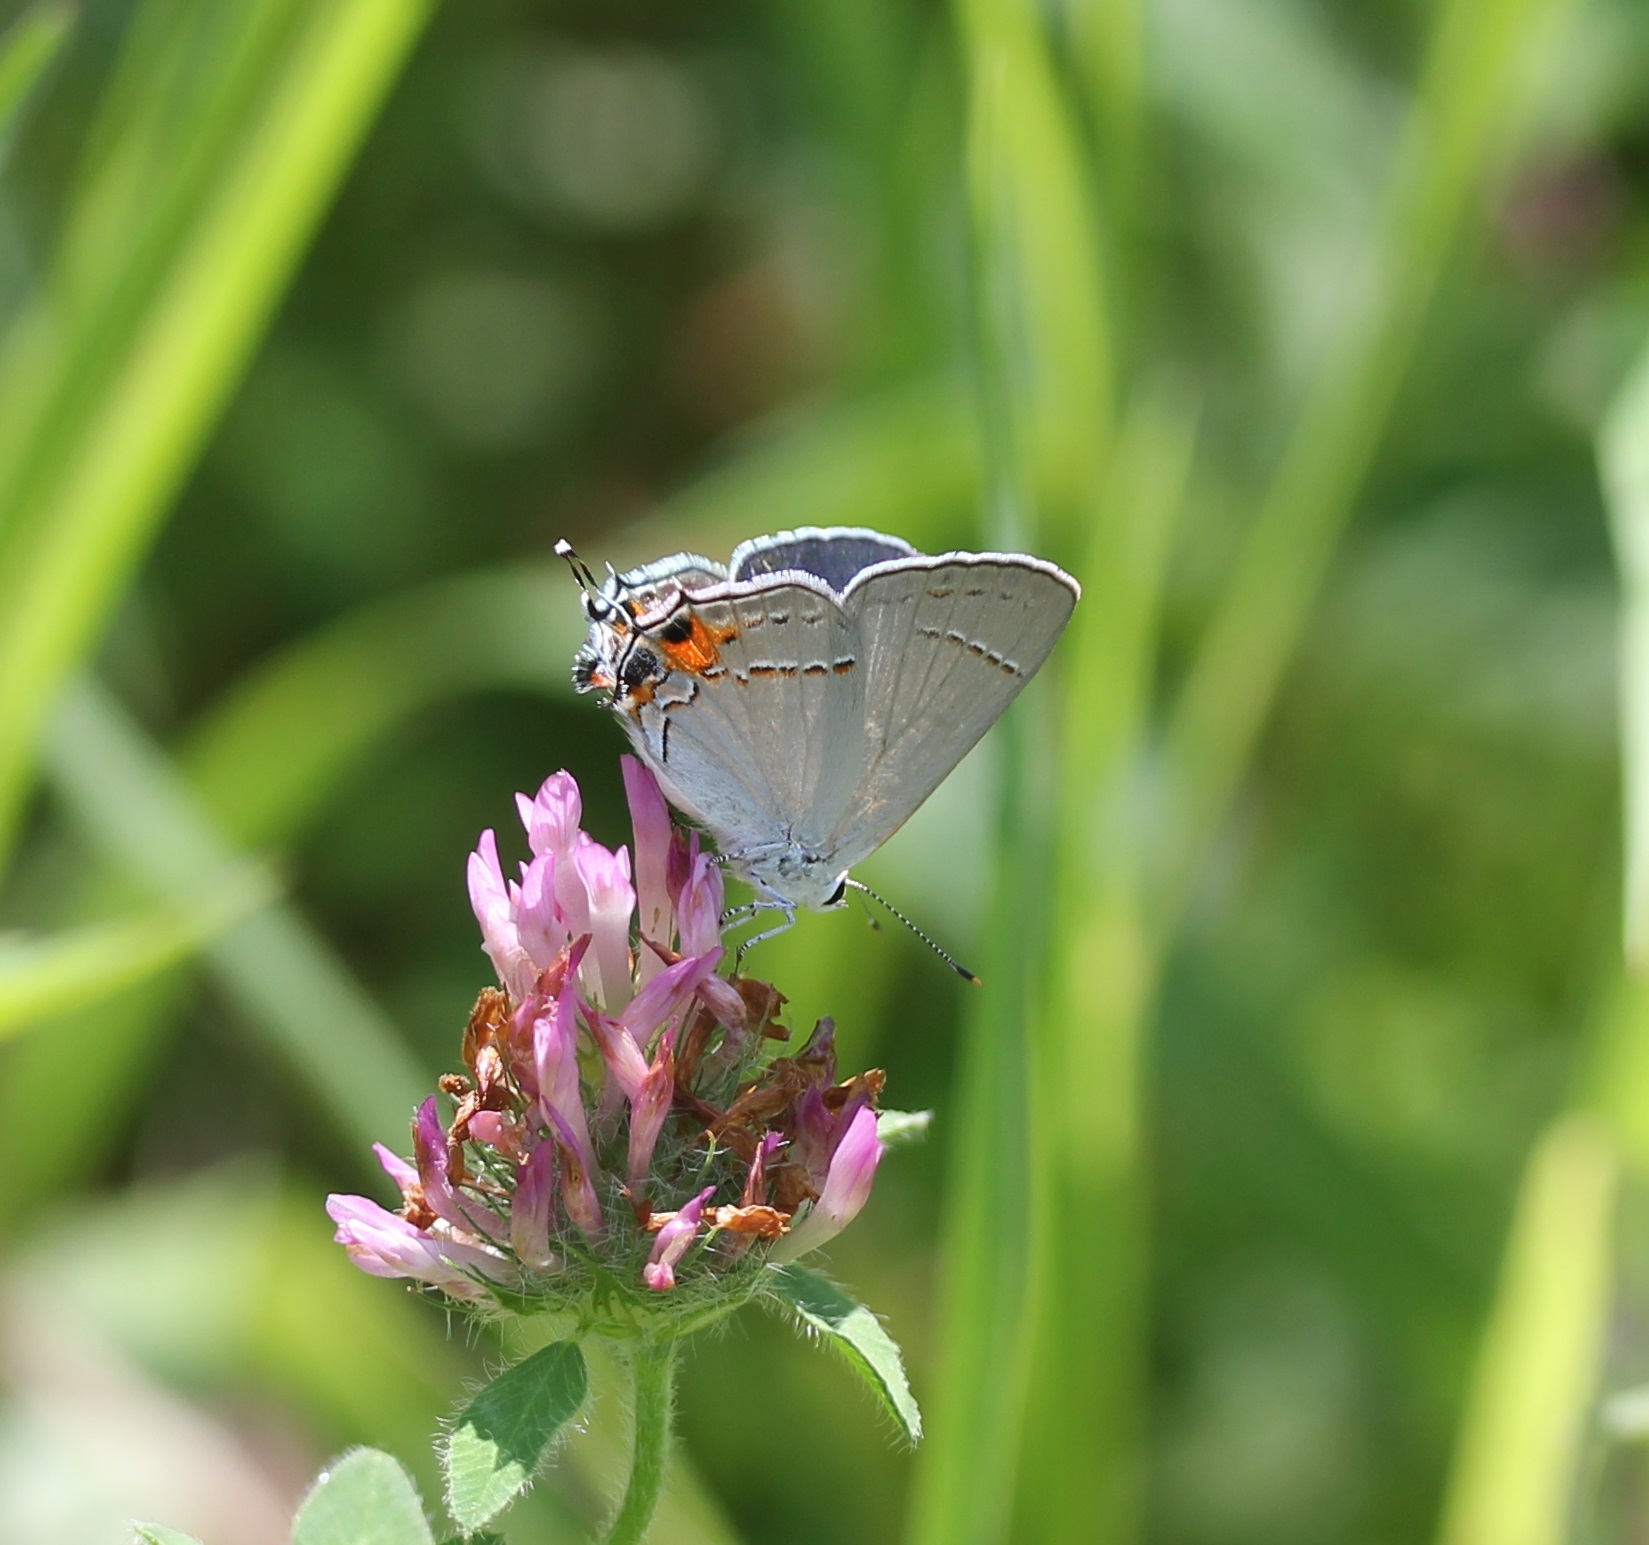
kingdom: Animalia
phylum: Arthropoda
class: Insecta
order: Lepidoptera
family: Lycaenidae
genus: Strymon
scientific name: Strymon melinus
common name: Gray hairstreak
